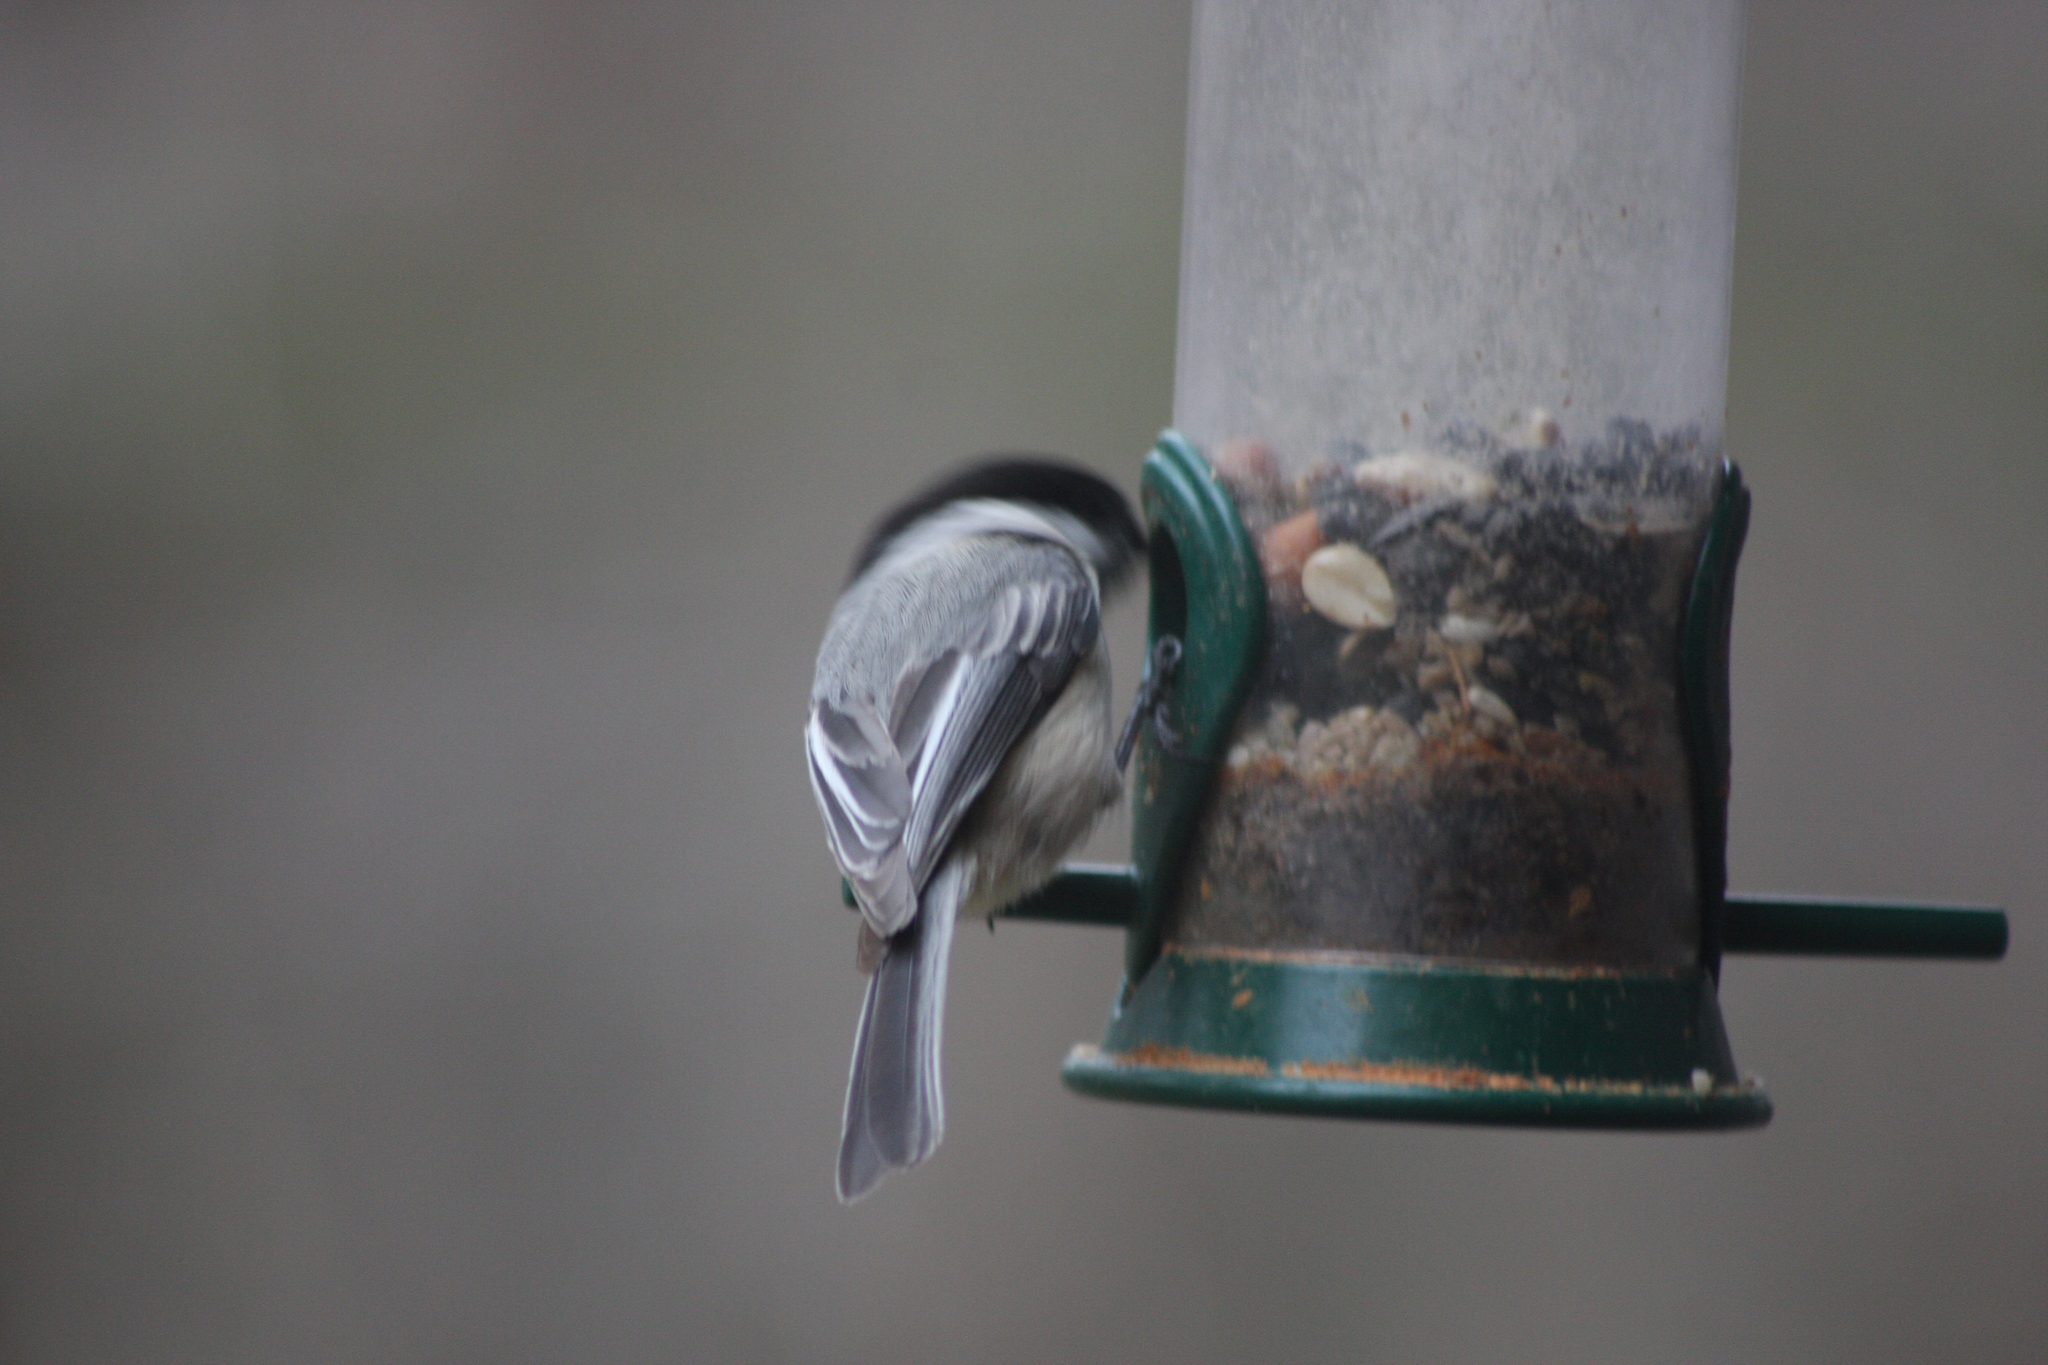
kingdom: Animalia
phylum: Chordata
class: Aves
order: Passeriformes
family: Paridae
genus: Poecile
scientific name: Poecile atricapillus
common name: Black-capped chickadee
